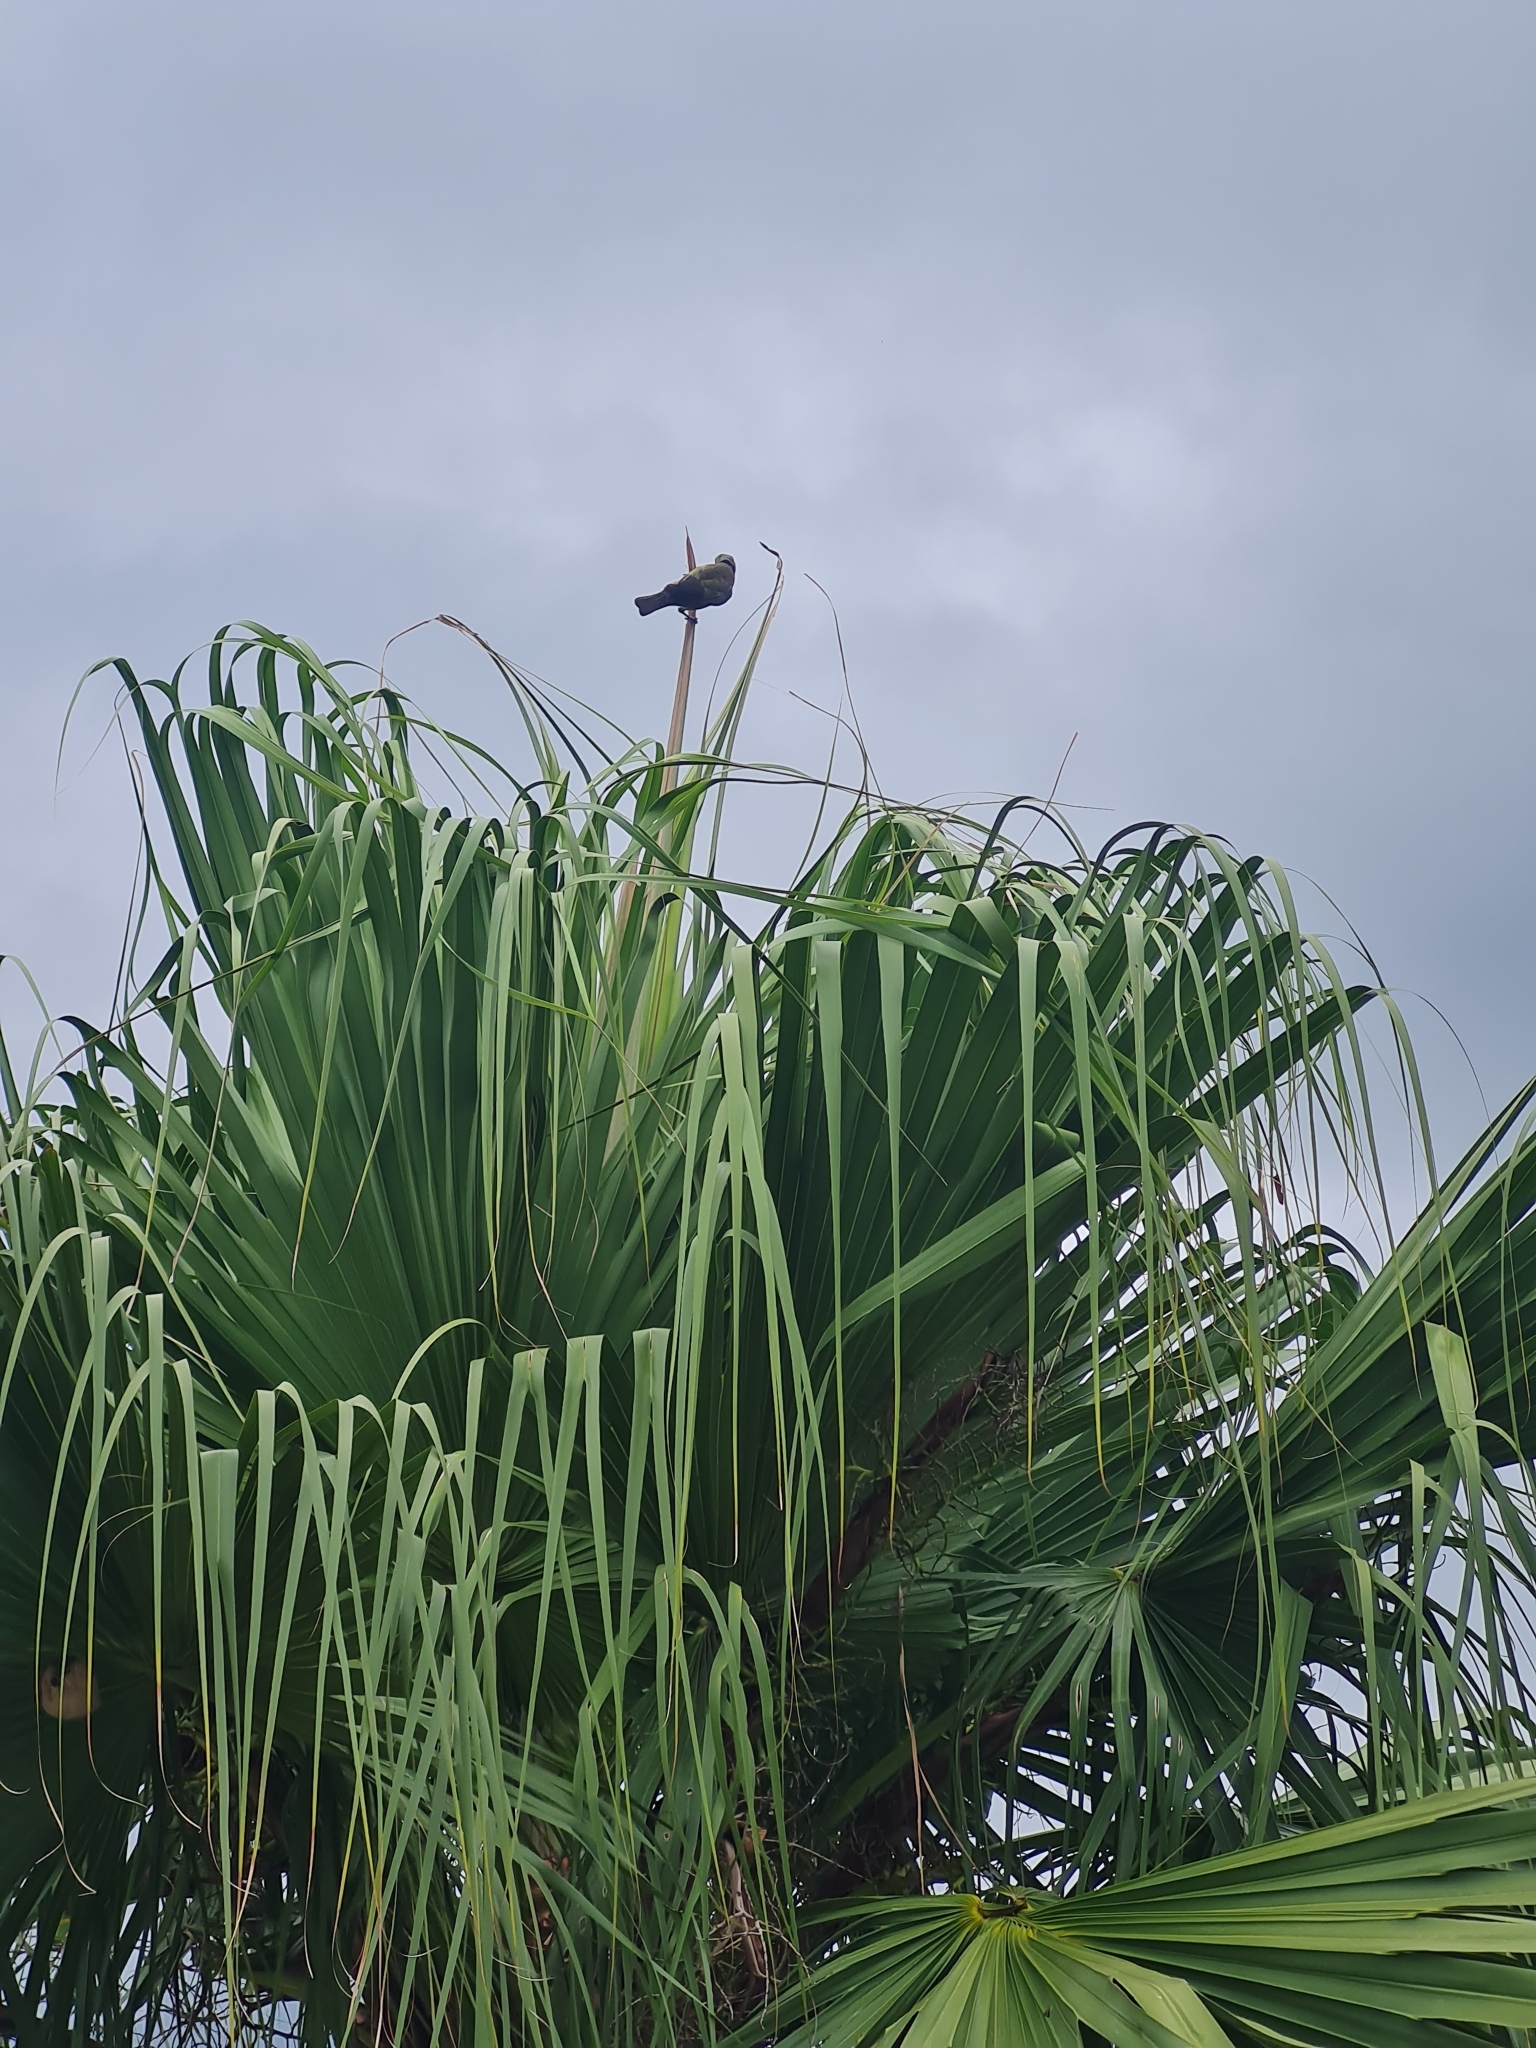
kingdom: Animalia
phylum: Chordata
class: Aves
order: Passeriformes
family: Thraupidae
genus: Thraupis
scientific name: Thraupis palmarum
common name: Palm tanager
